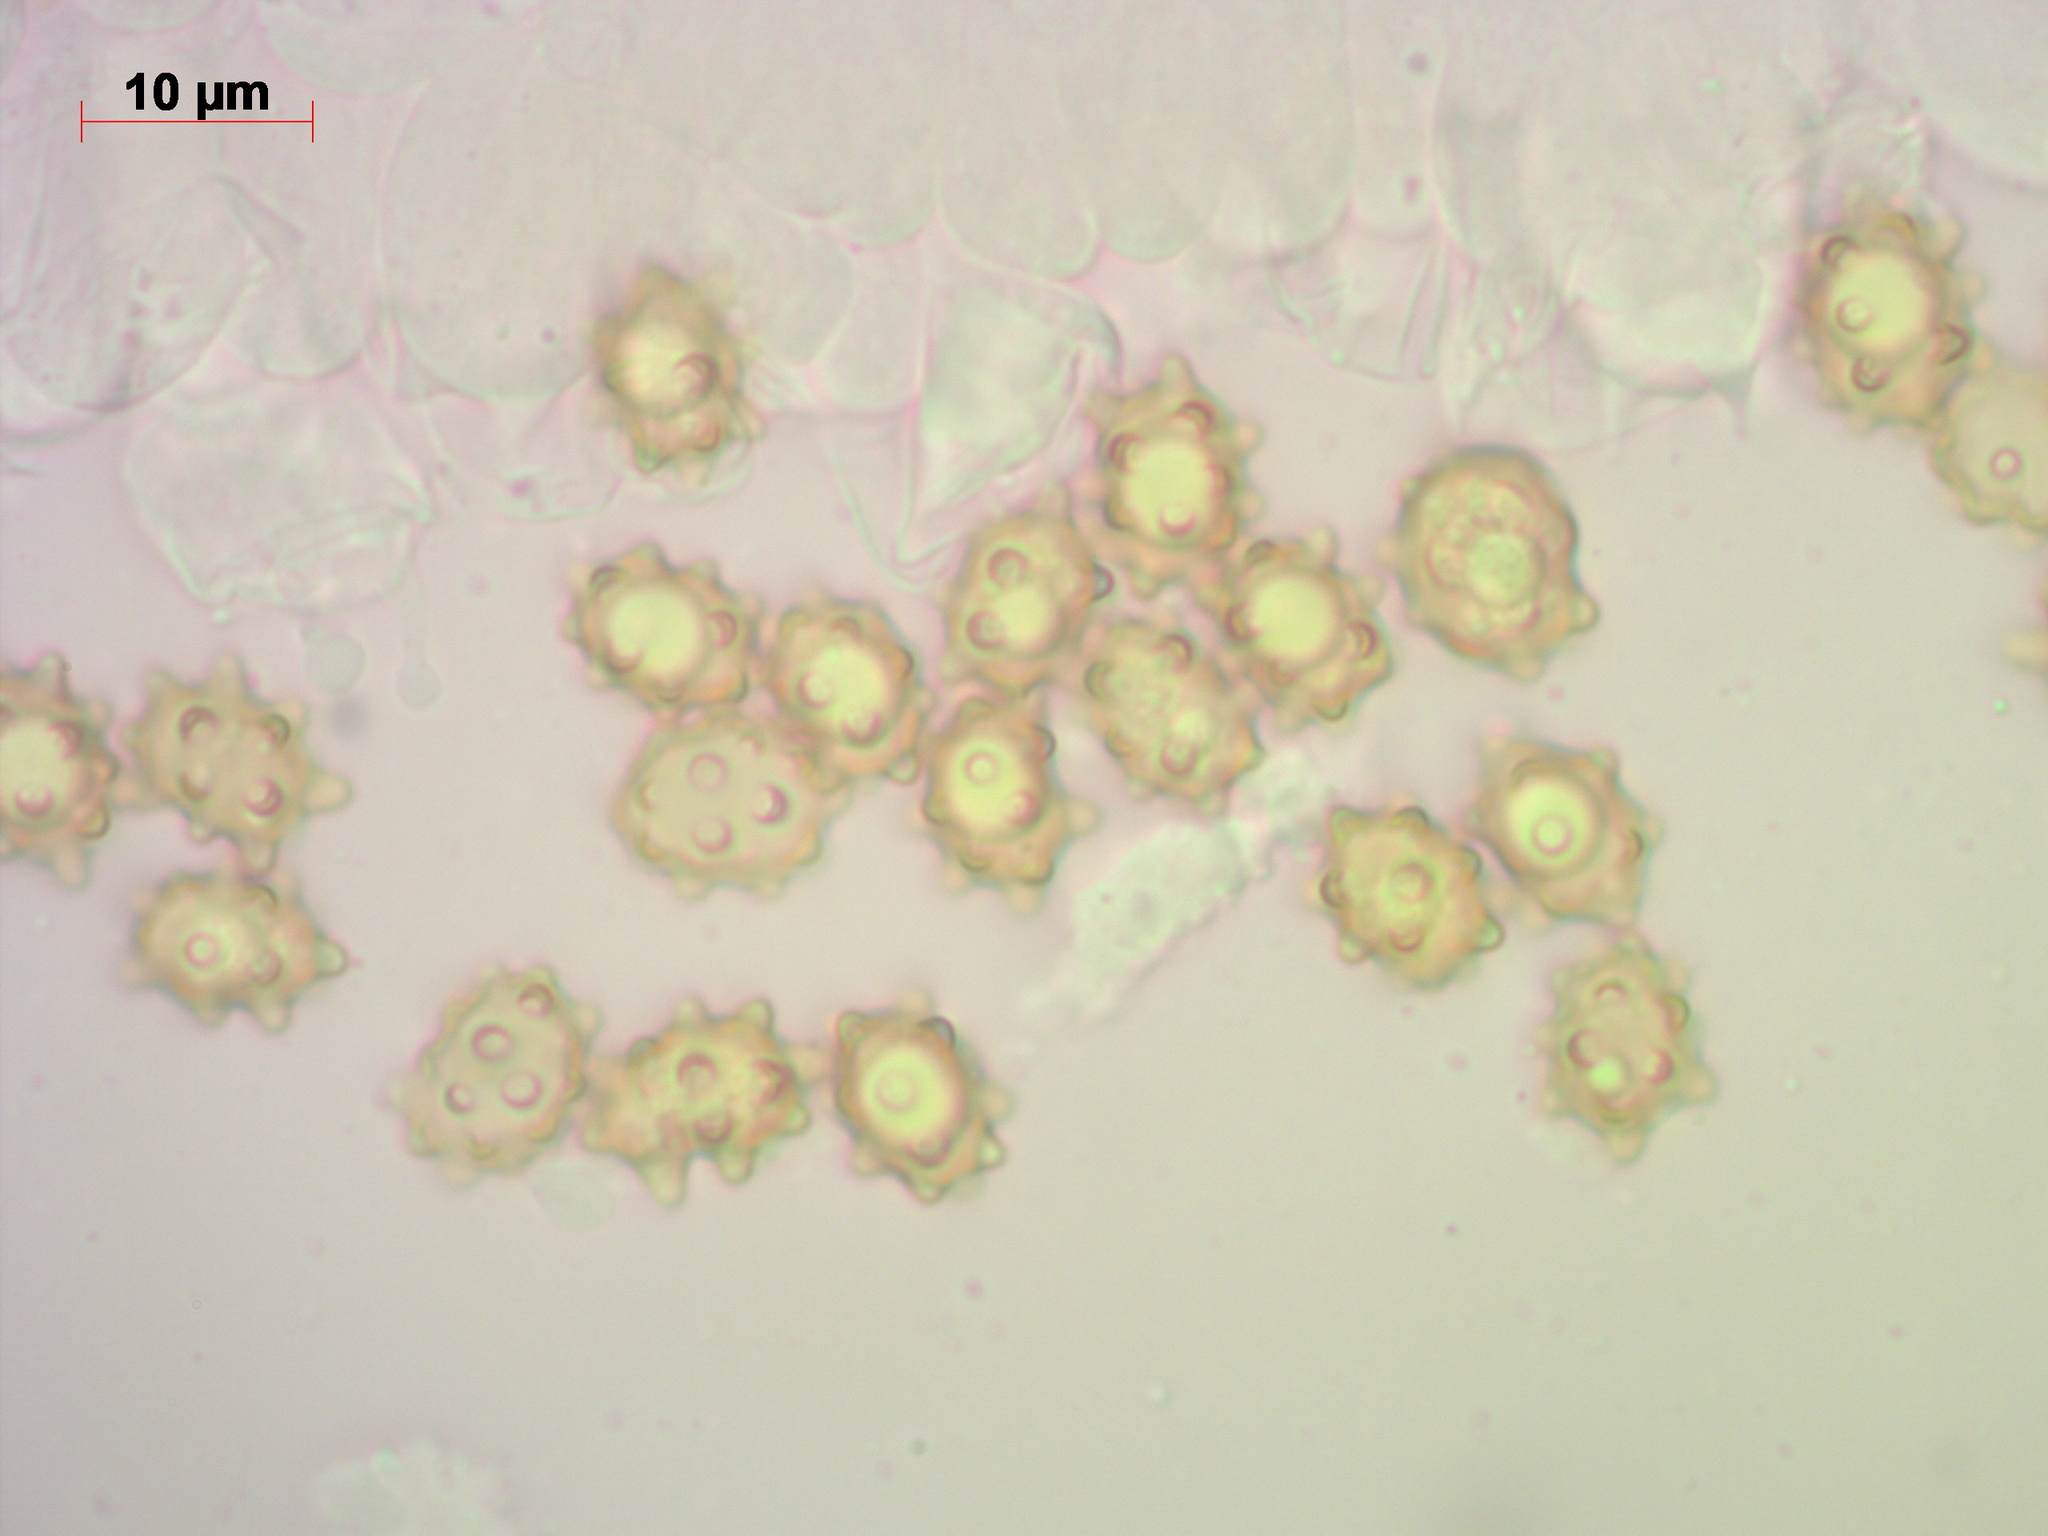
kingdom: Fungi
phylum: Basidiomycota
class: Agaricomycetes
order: Agaricales
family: Inocybaceae
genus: Inocybe
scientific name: Inocybe lanuginosa
